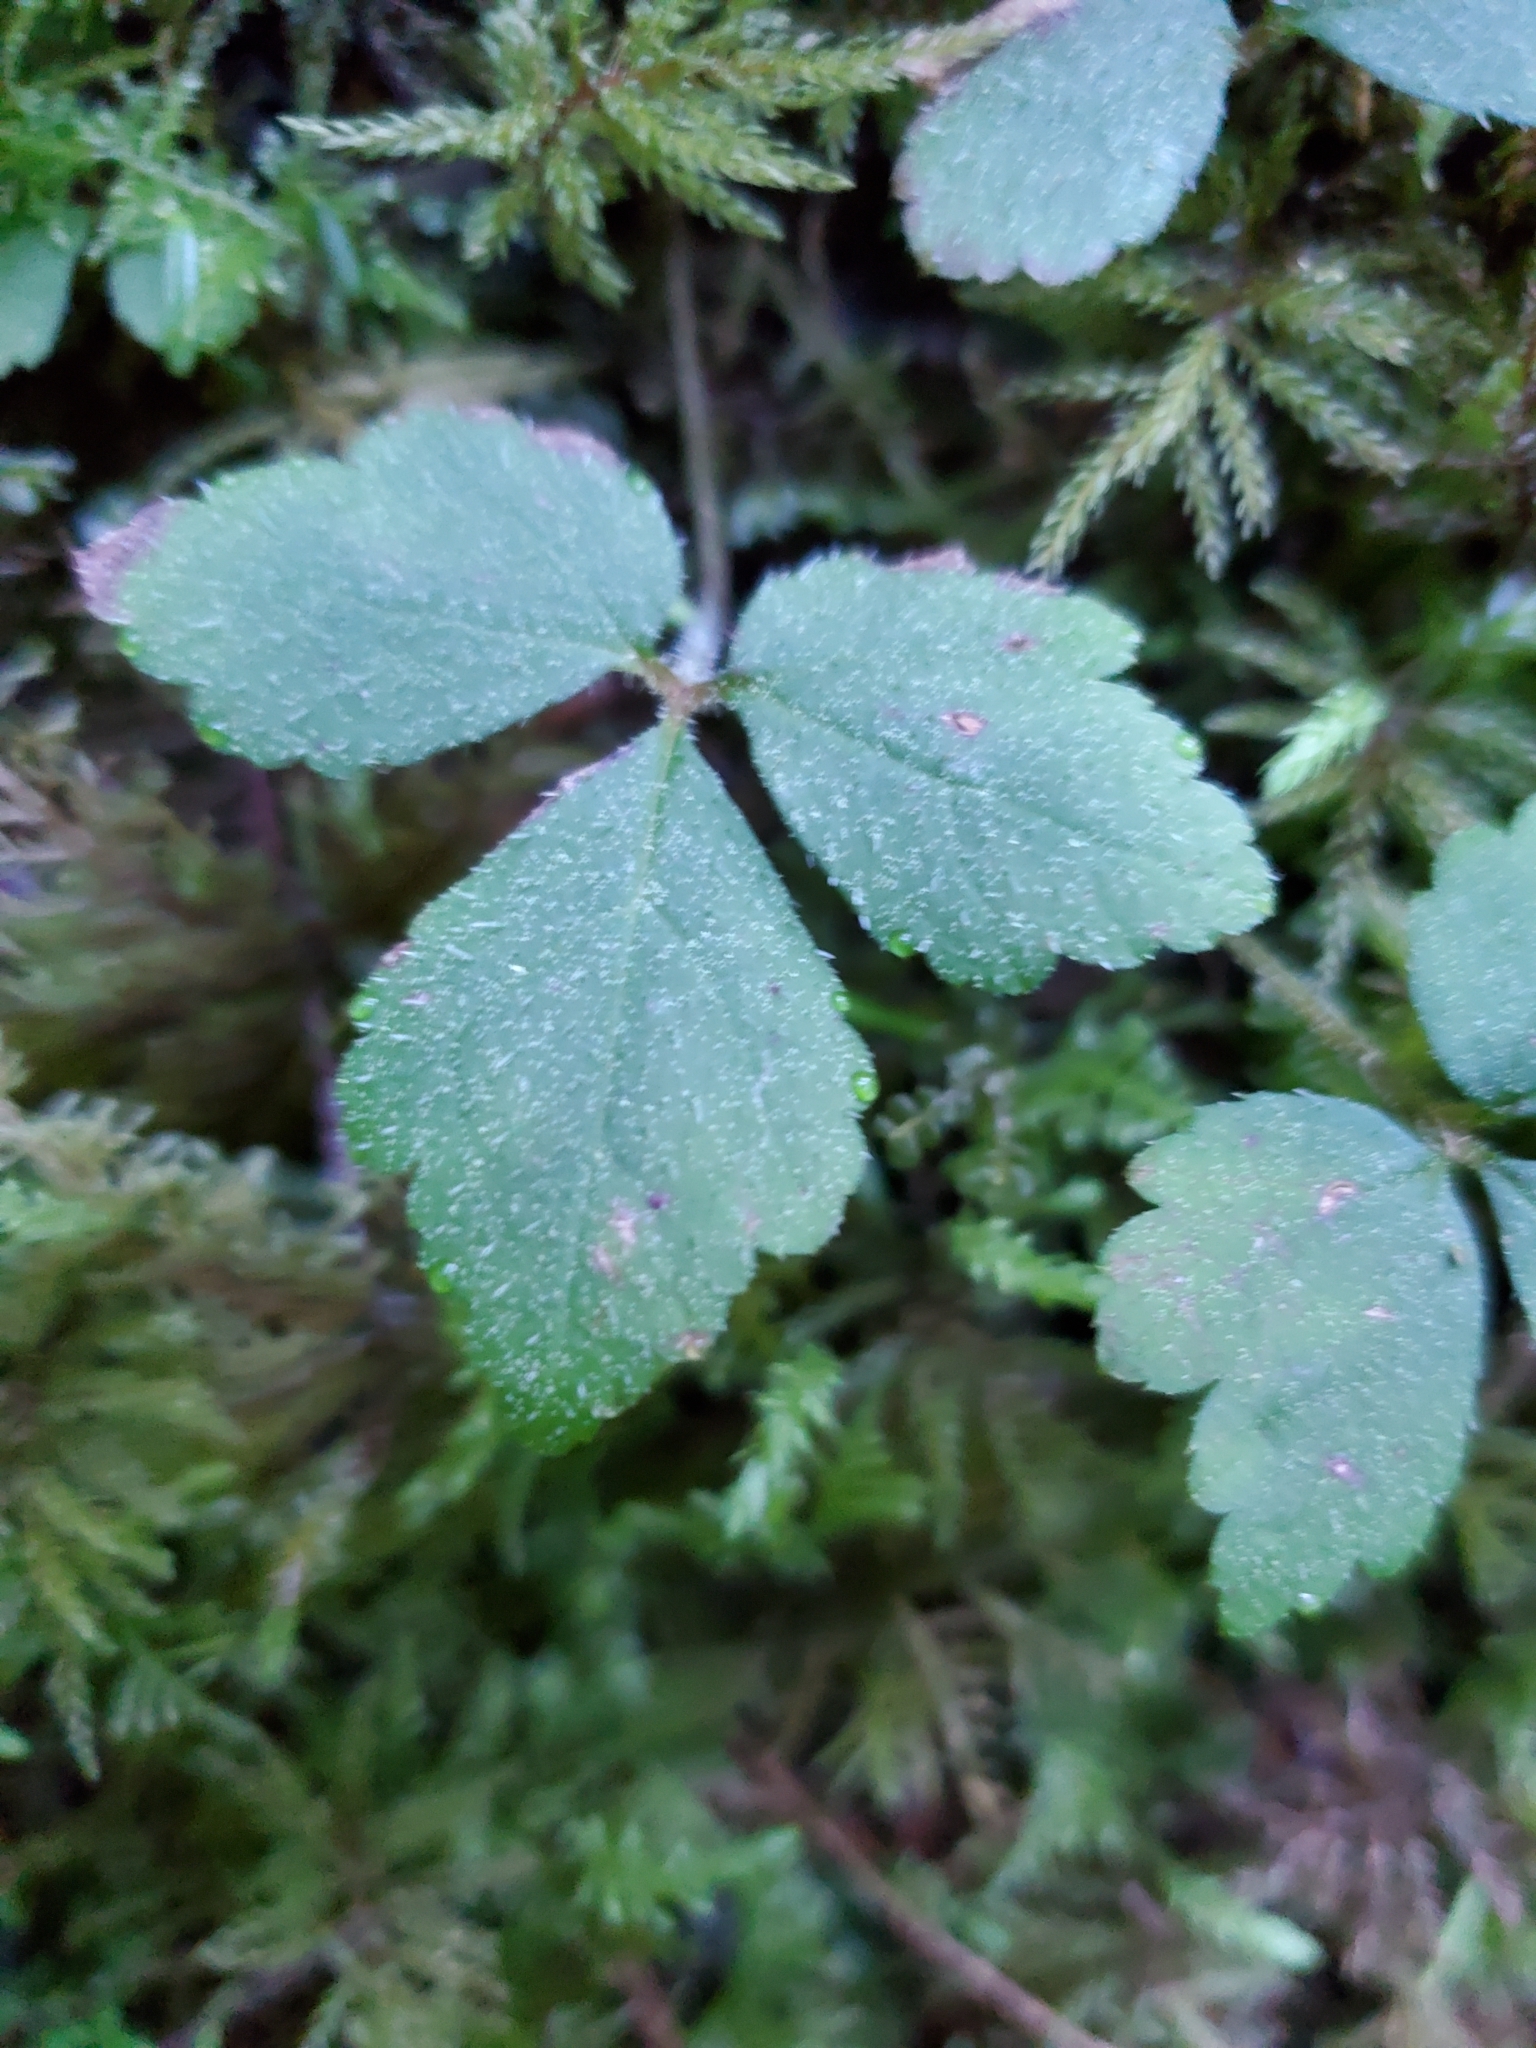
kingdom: Plantae
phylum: Tracheophyta
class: Magnoliopsida
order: Saxifragales
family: Saxifragaceae
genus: Tiarella
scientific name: Tiarella trifoliata
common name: Sugar-scoop
